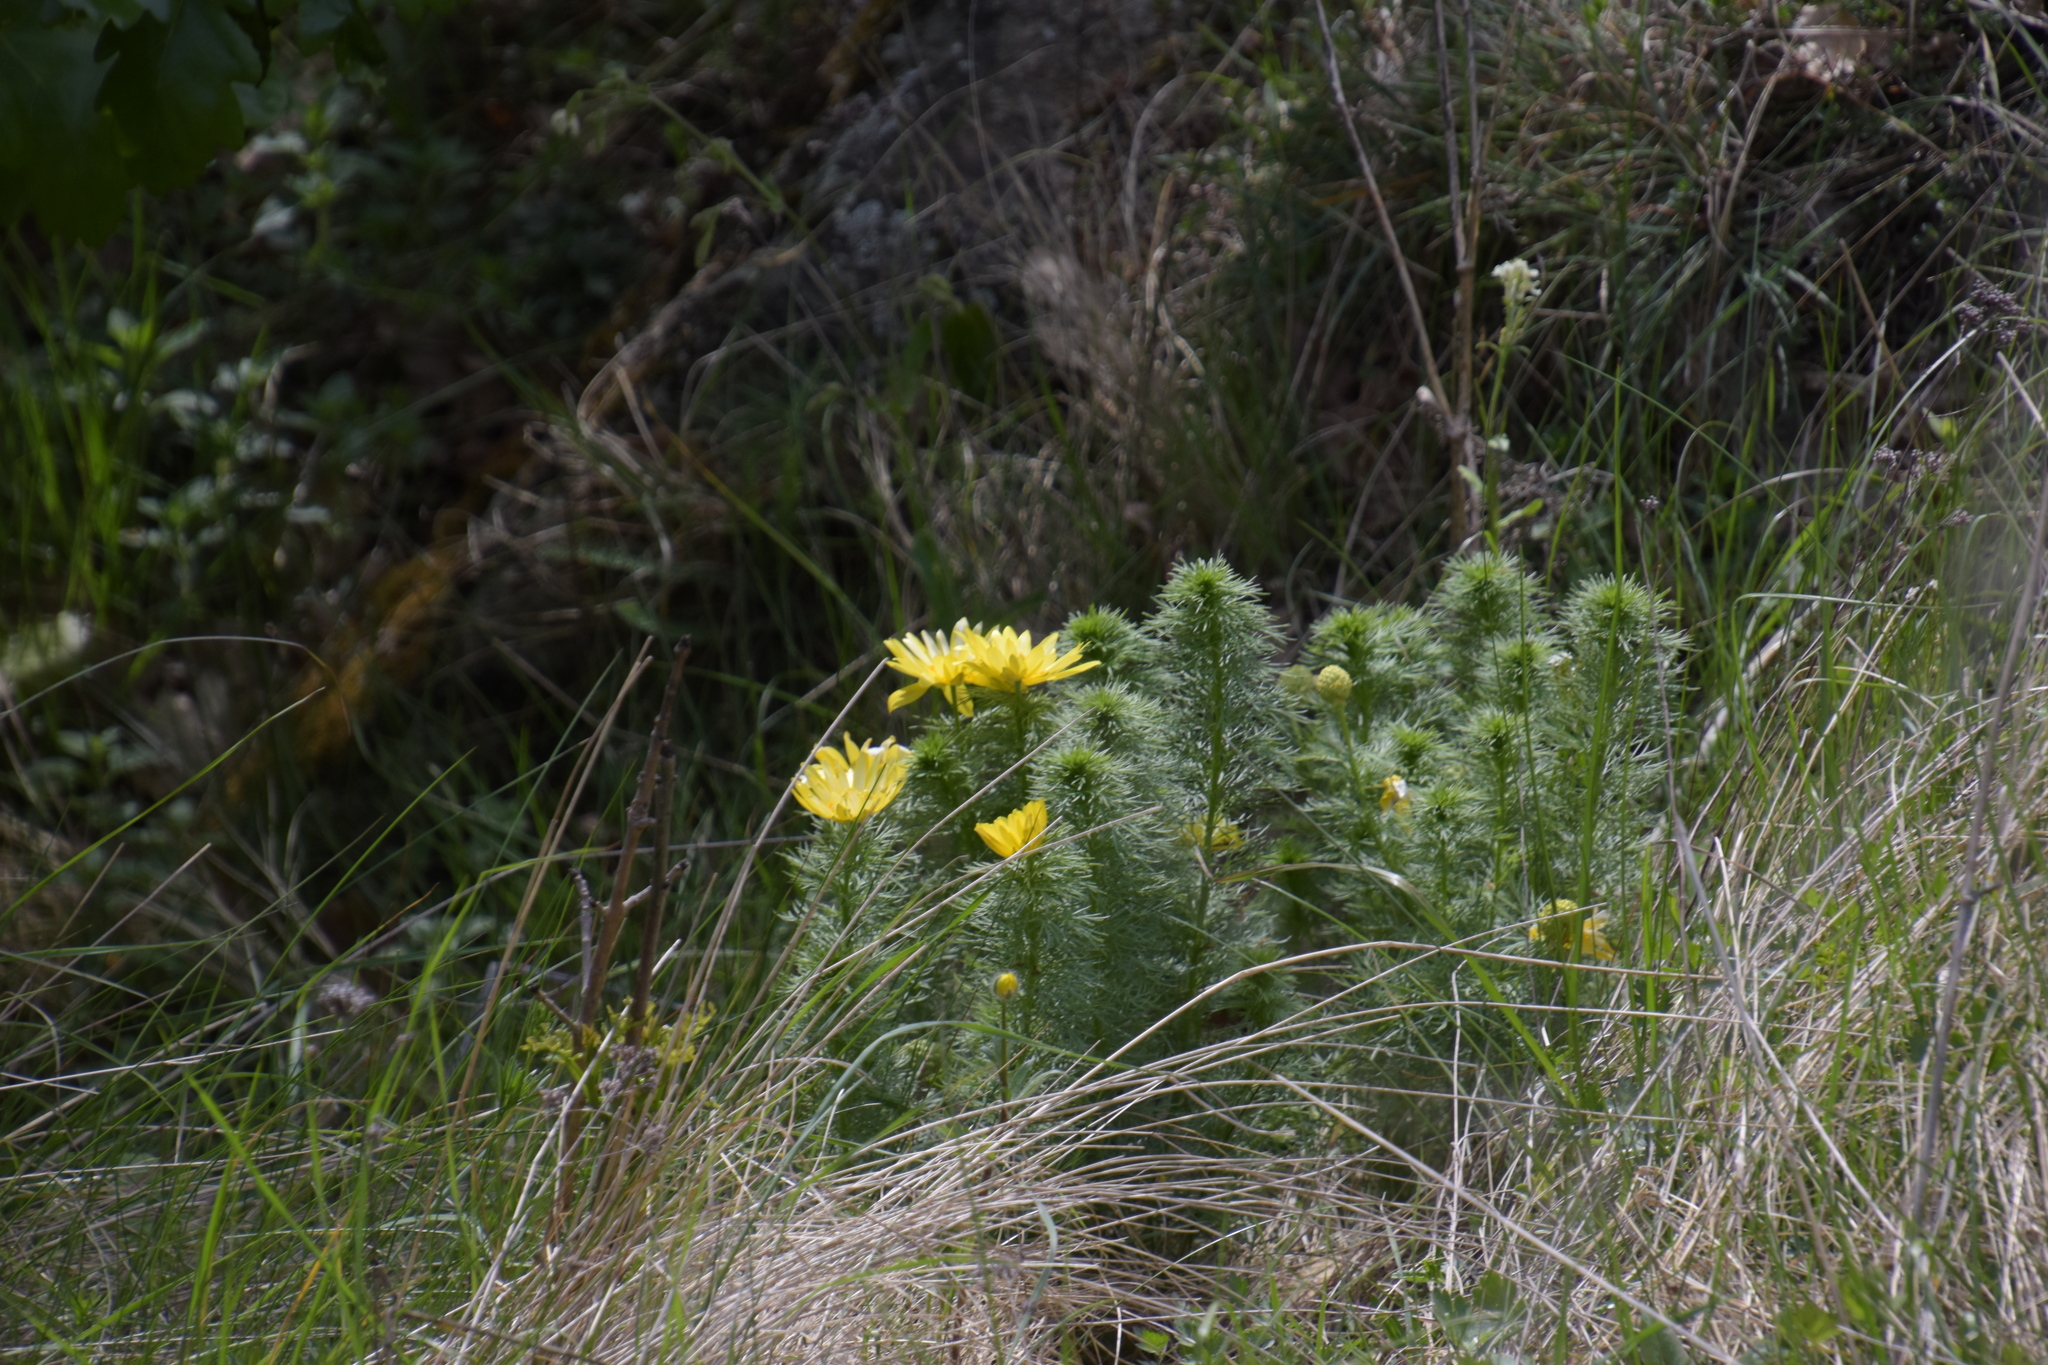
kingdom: Plantae
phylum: Tracheophyta
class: Magnoliopsida
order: Ranunculales
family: Ranunculaceae
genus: Adonis
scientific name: Adonis vernalis
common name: Yellow pheasants-eye
